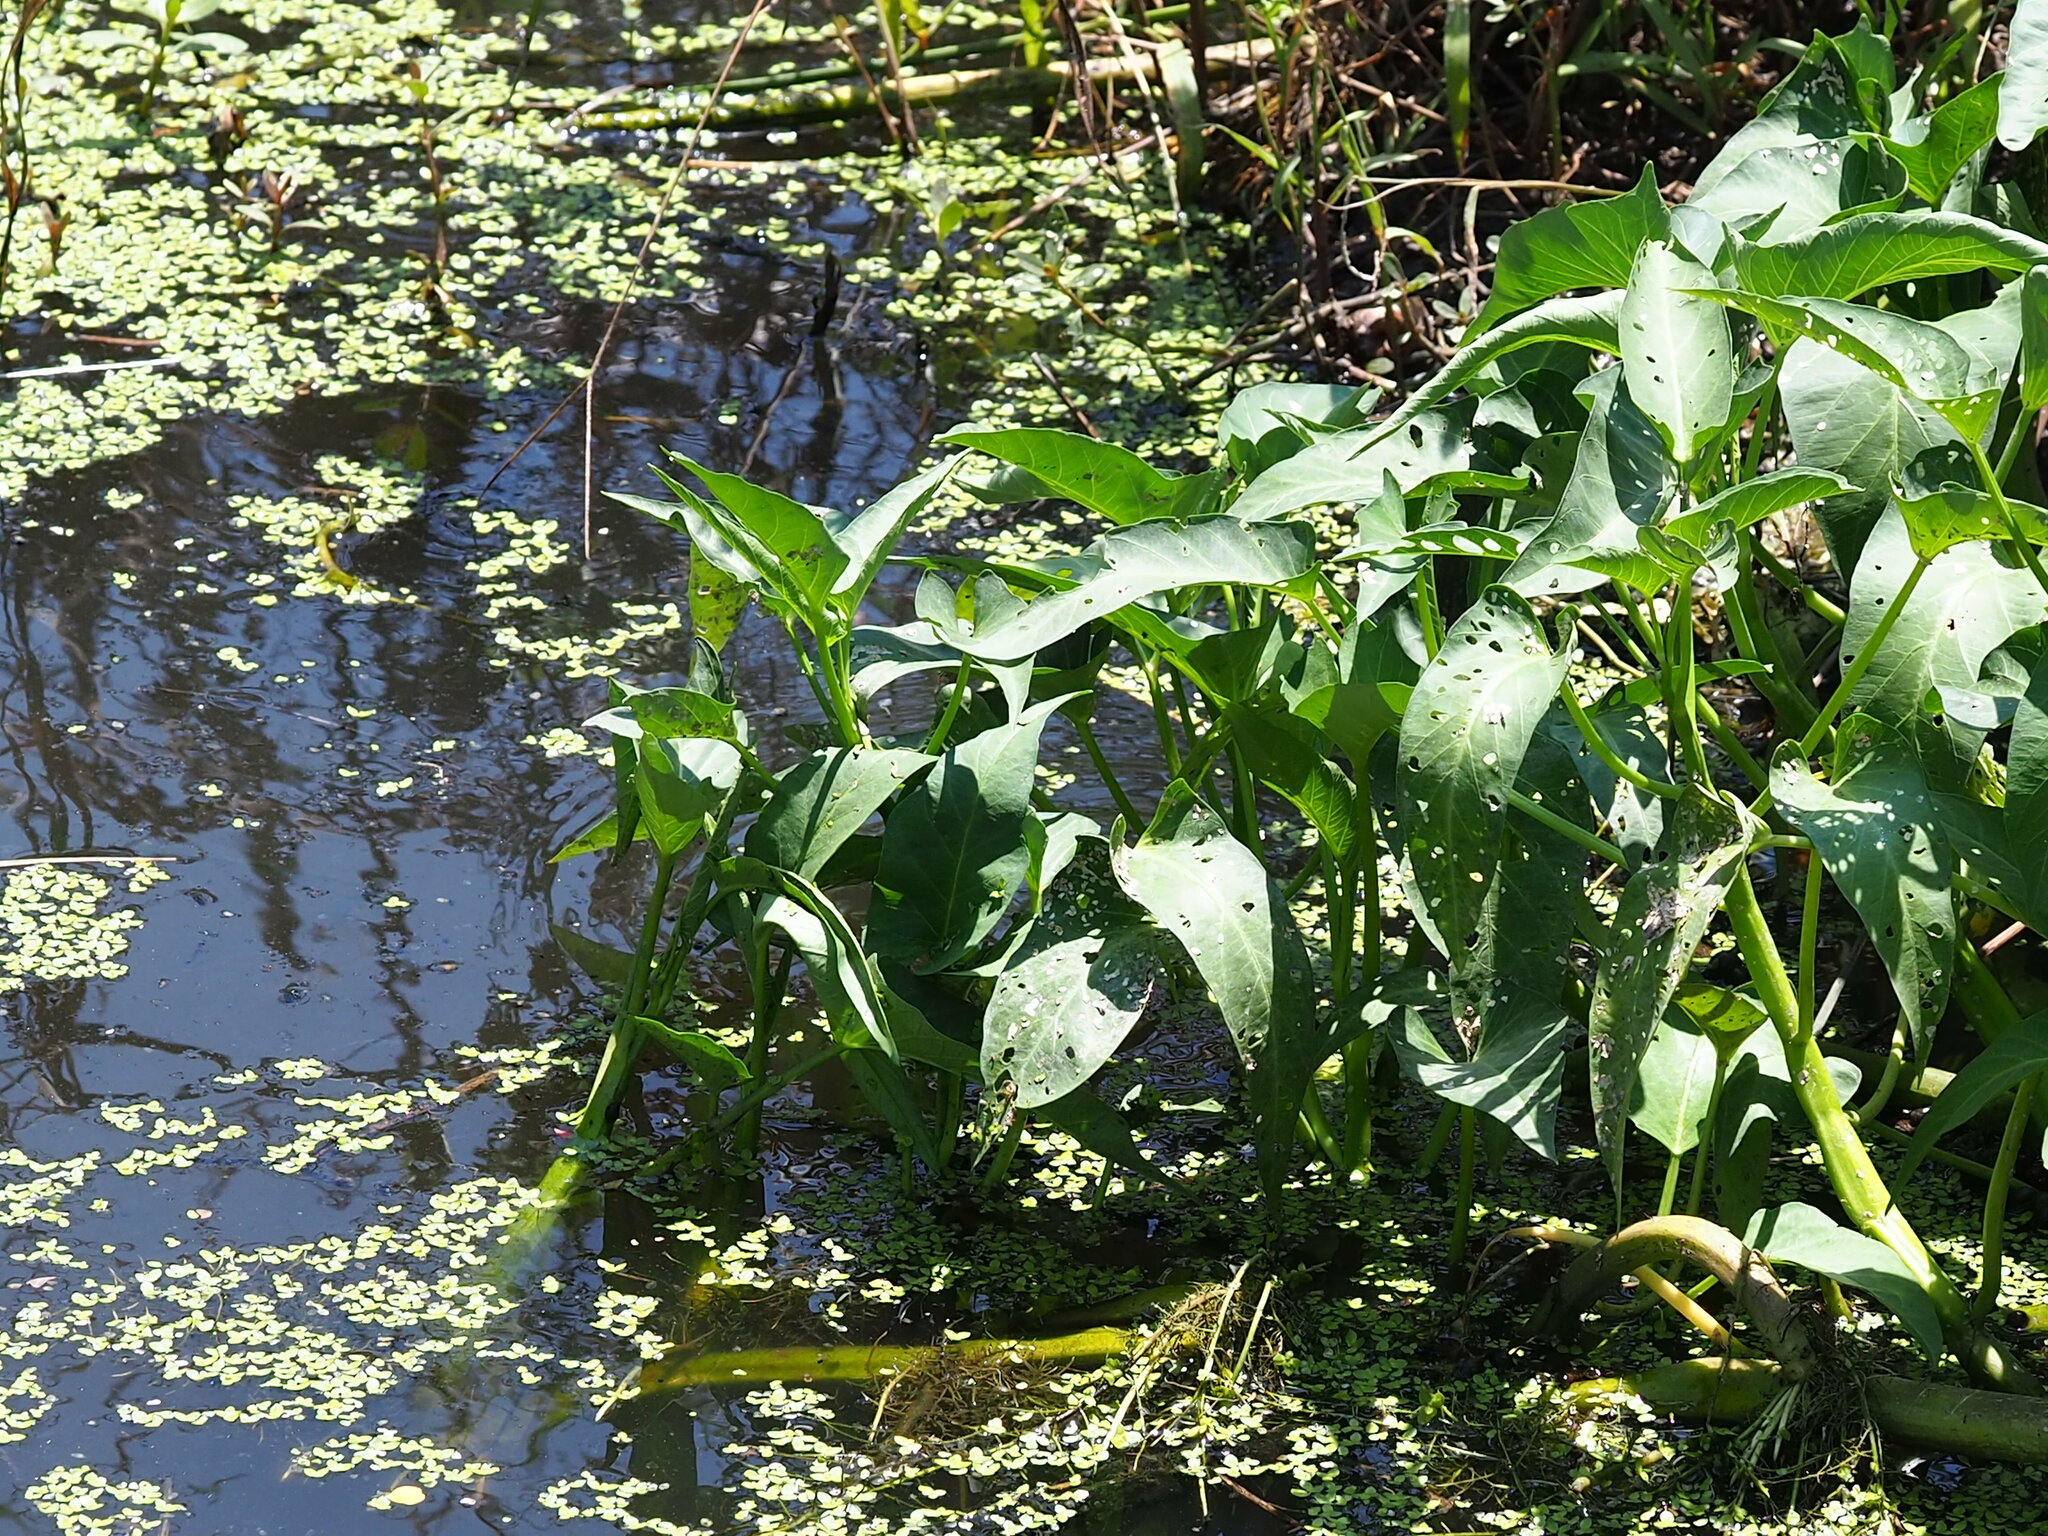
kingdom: Plantae
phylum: Tracheophyta
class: Magnoliopsida
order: Solanales
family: Convolvulaceae
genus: Ipomoea
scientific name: Ipomoea aquatica
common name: Swamp morning-glory
